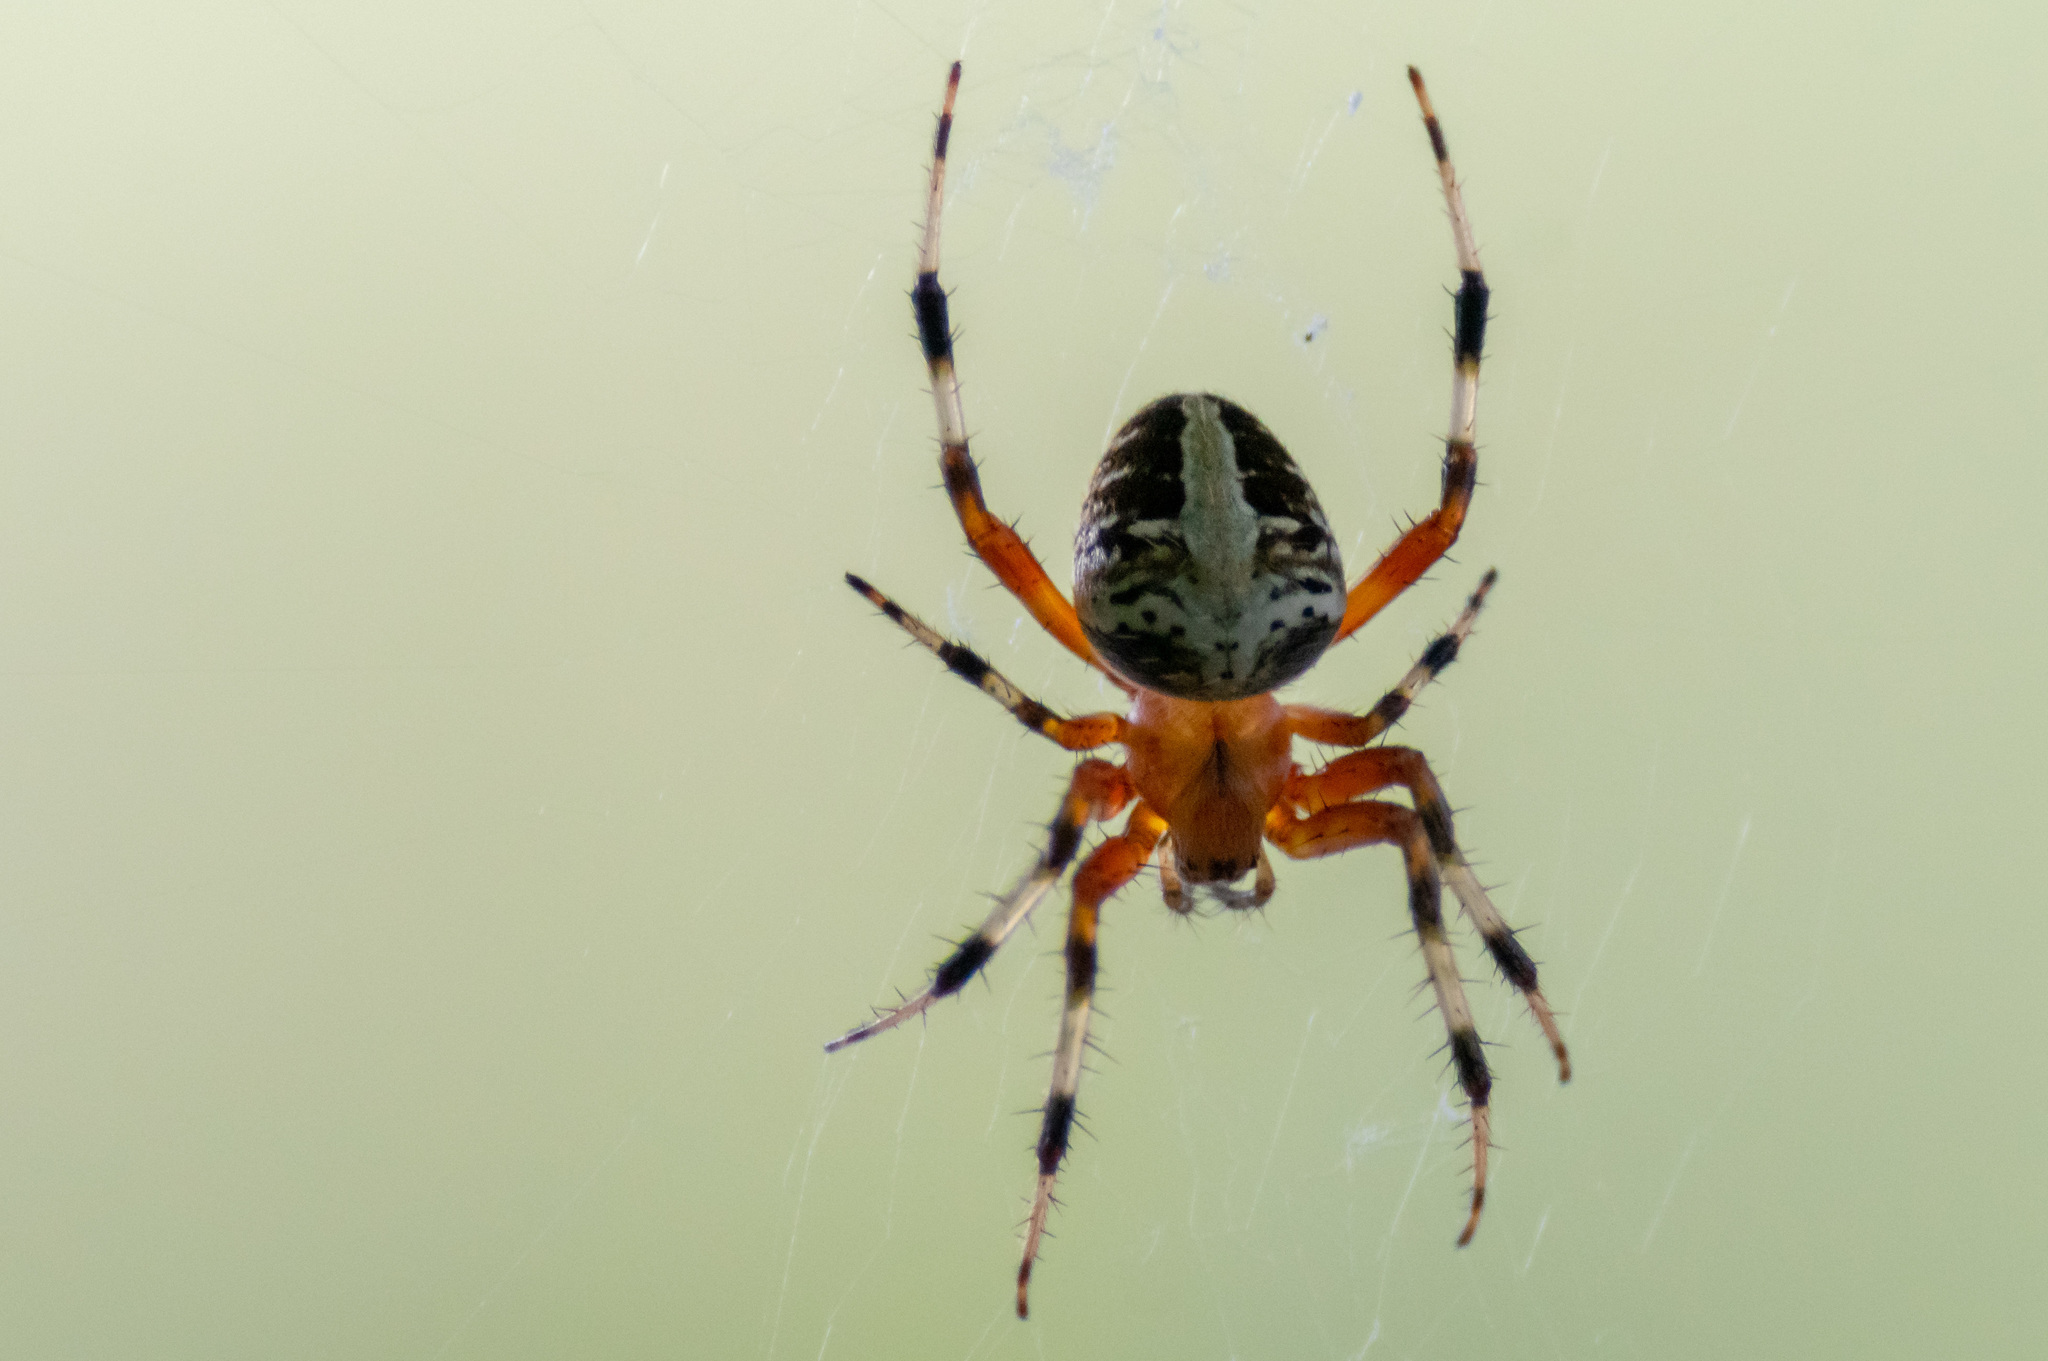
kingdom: Animalia
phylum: Arthropoda
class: Arachnida
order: Araneae
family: Araneidae
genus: Neoscona
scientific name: Neoscona domiciliorum
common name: Red-femured spotted orbweaver
